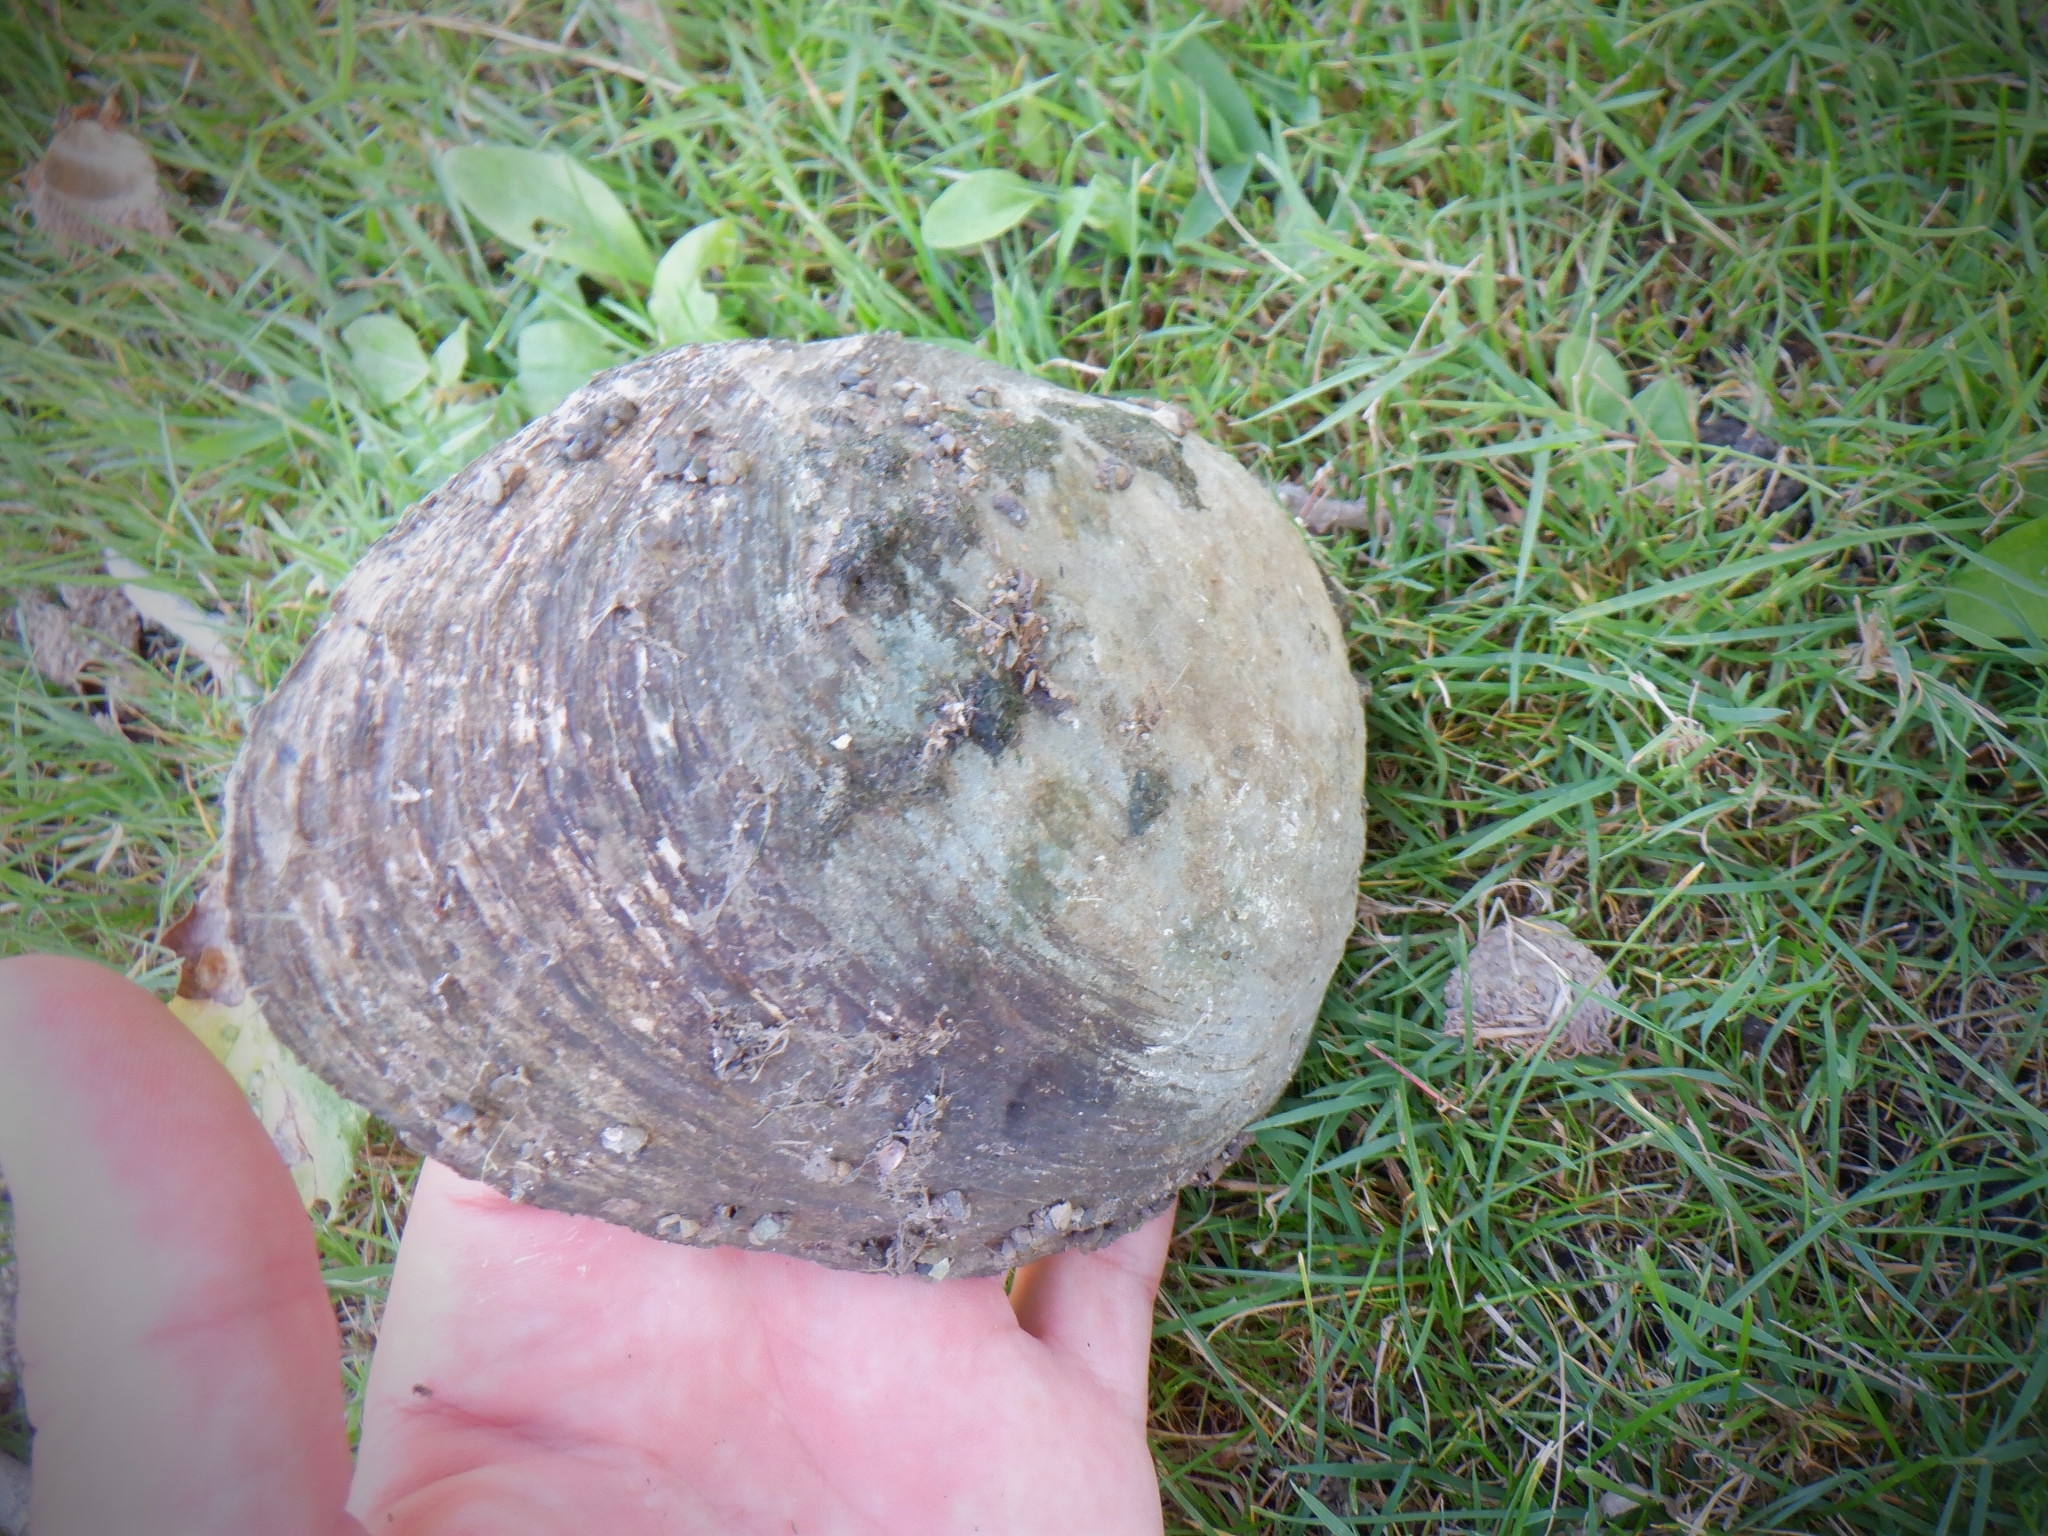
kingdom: Animalia
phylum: Mollusca
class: Bivalvia
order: Unionida
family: Unionidae
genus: Ortmanniana
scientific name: Ortmanniana ligamentina
